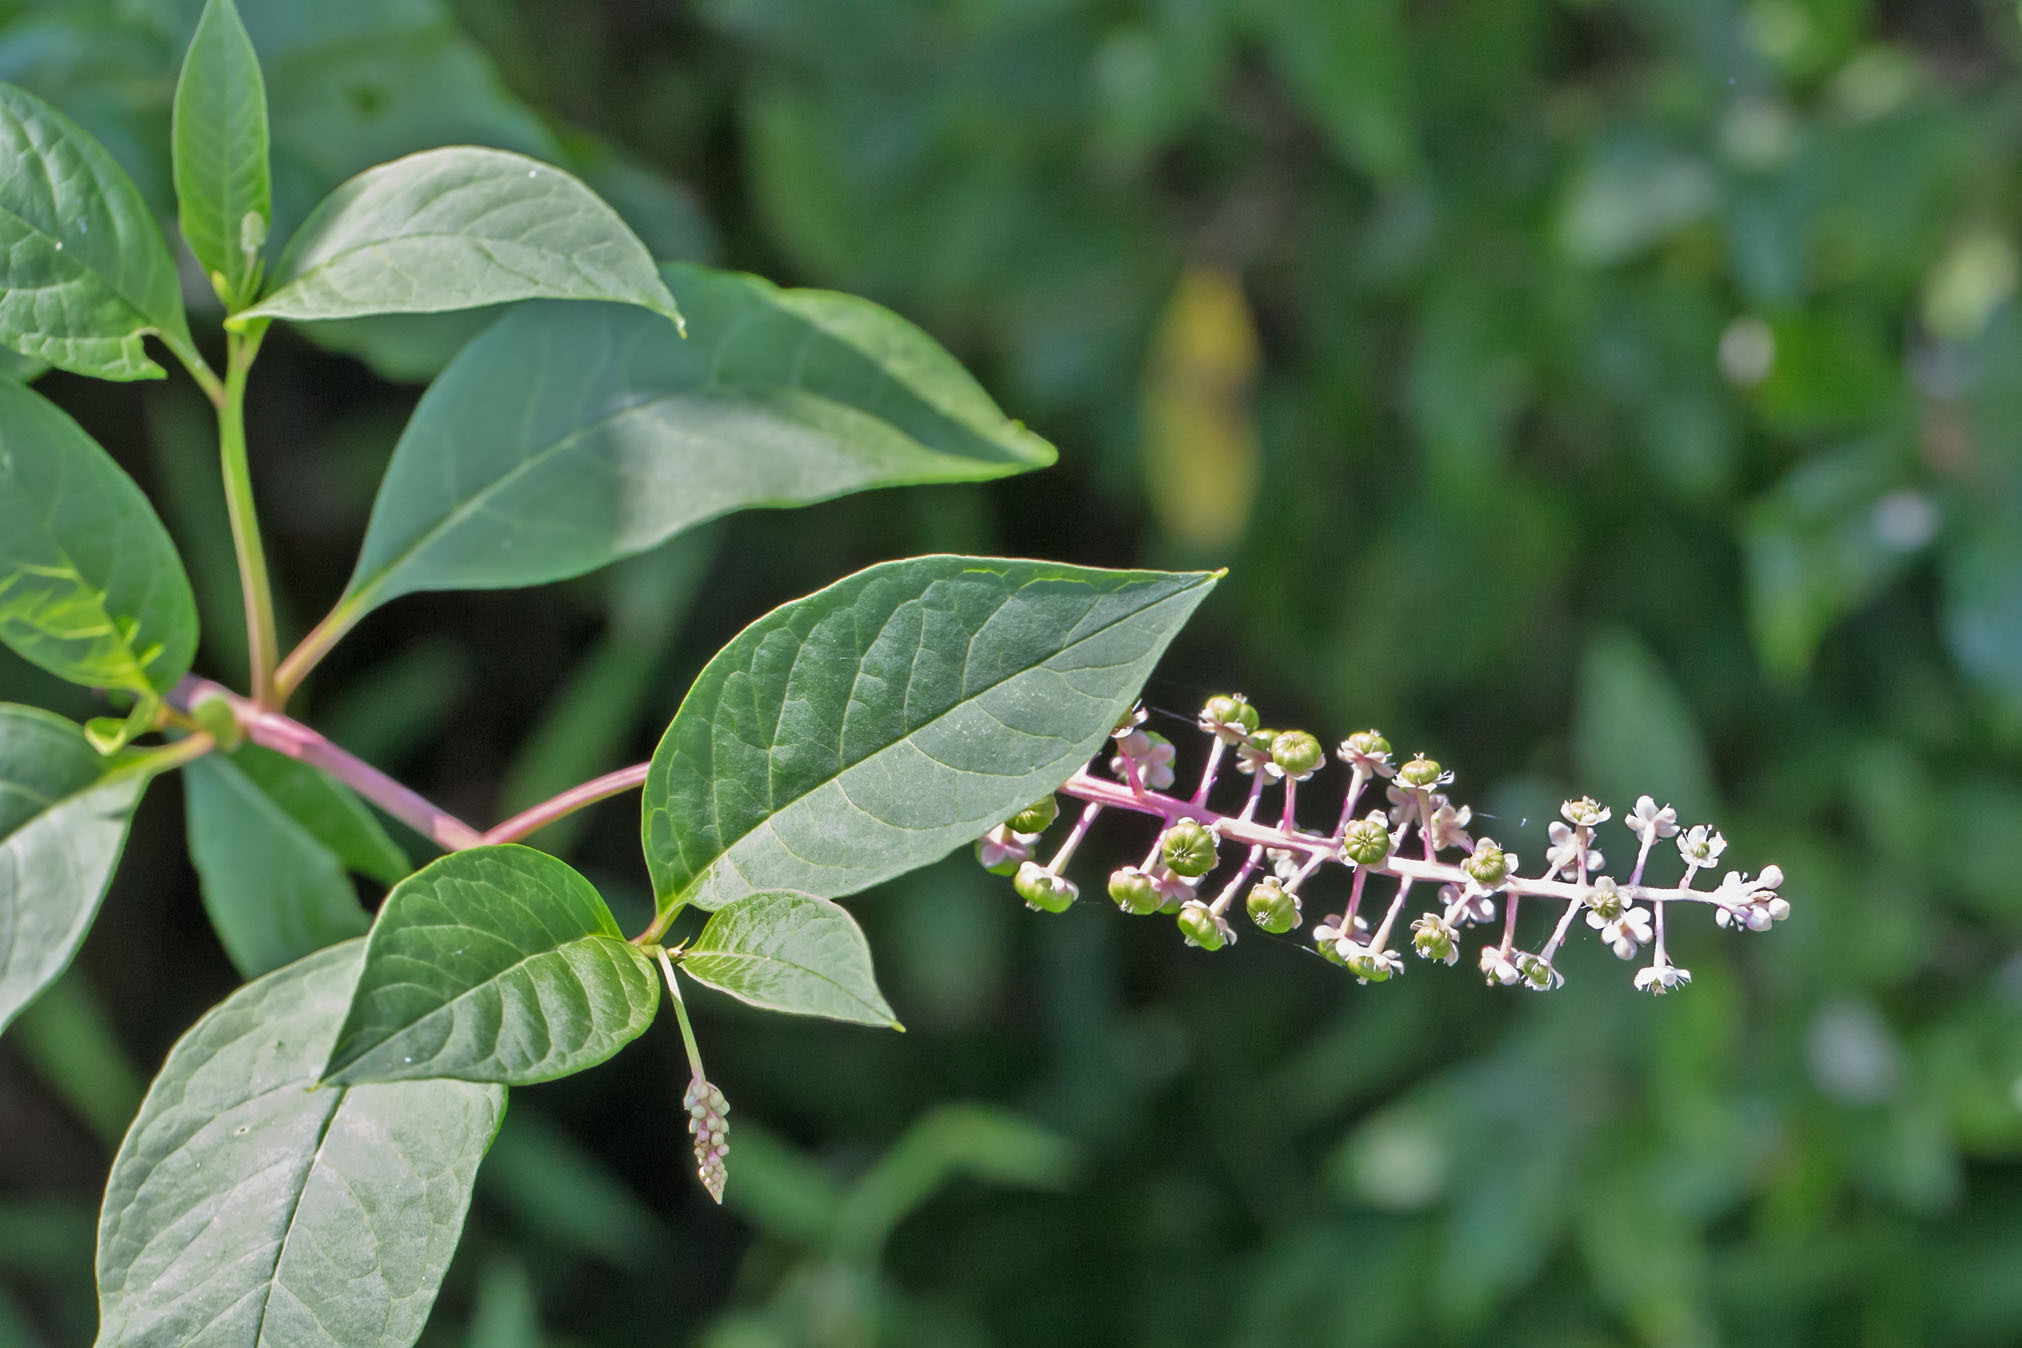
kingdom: Plantae
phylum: Tracheophyta
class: Magnoliopsida
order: Caryophyllales
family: Phytolaccaceae
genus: Phytolacca
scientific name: Phytolacca americana
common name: American pokeweed
